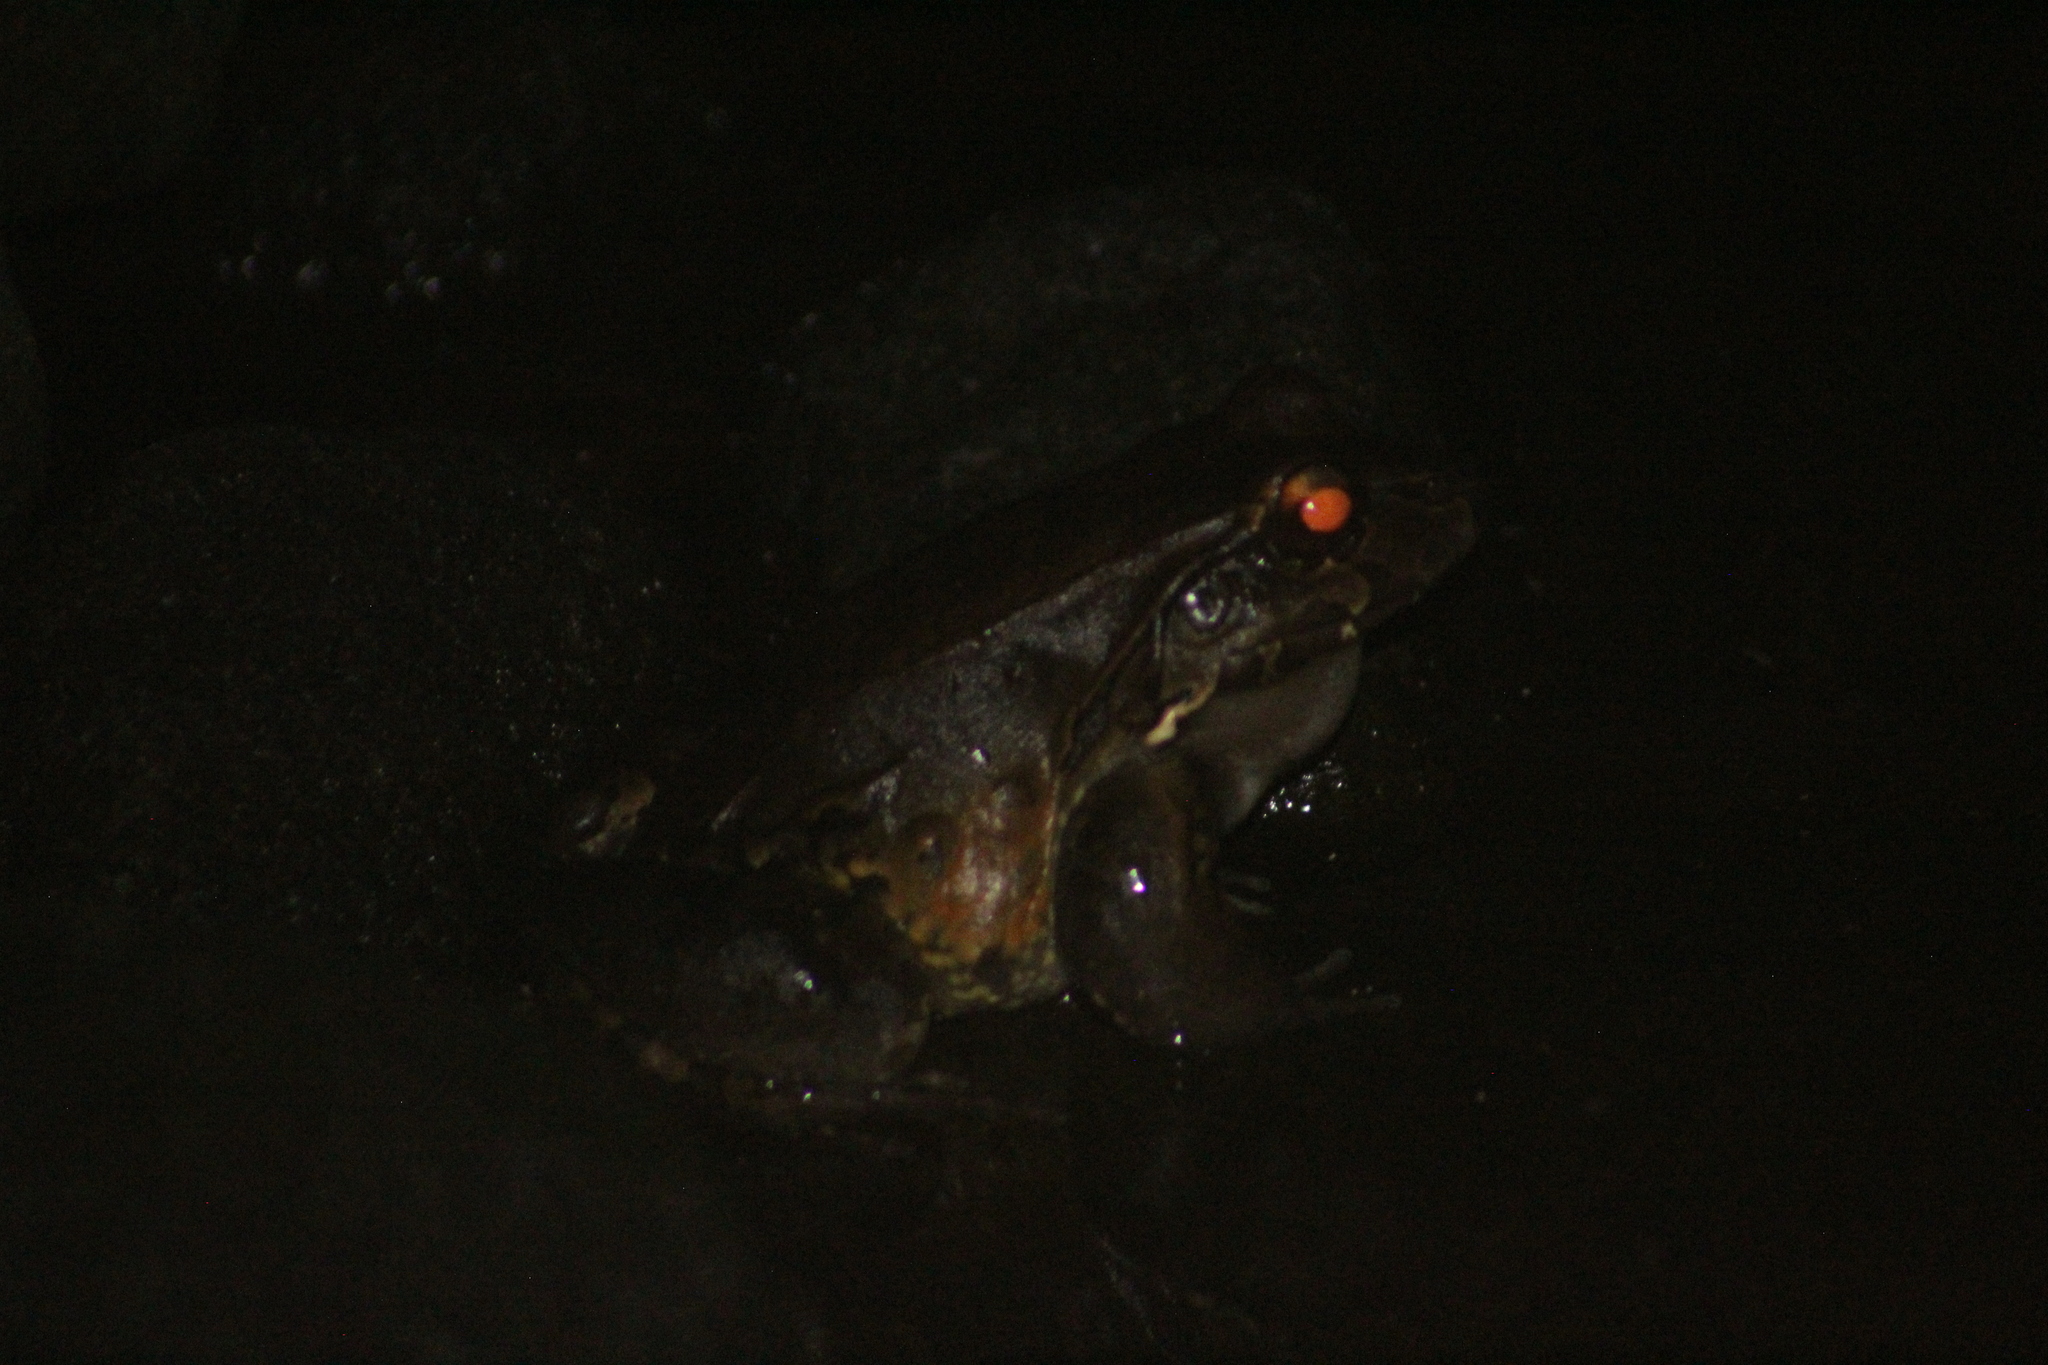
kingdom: Animalia
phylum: Chordata
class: Amphibia
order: Anura
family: Leptodactylidae
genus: Leptodactylus
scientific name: Leptodactylus savagei
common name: Savage's thin-toed frog
